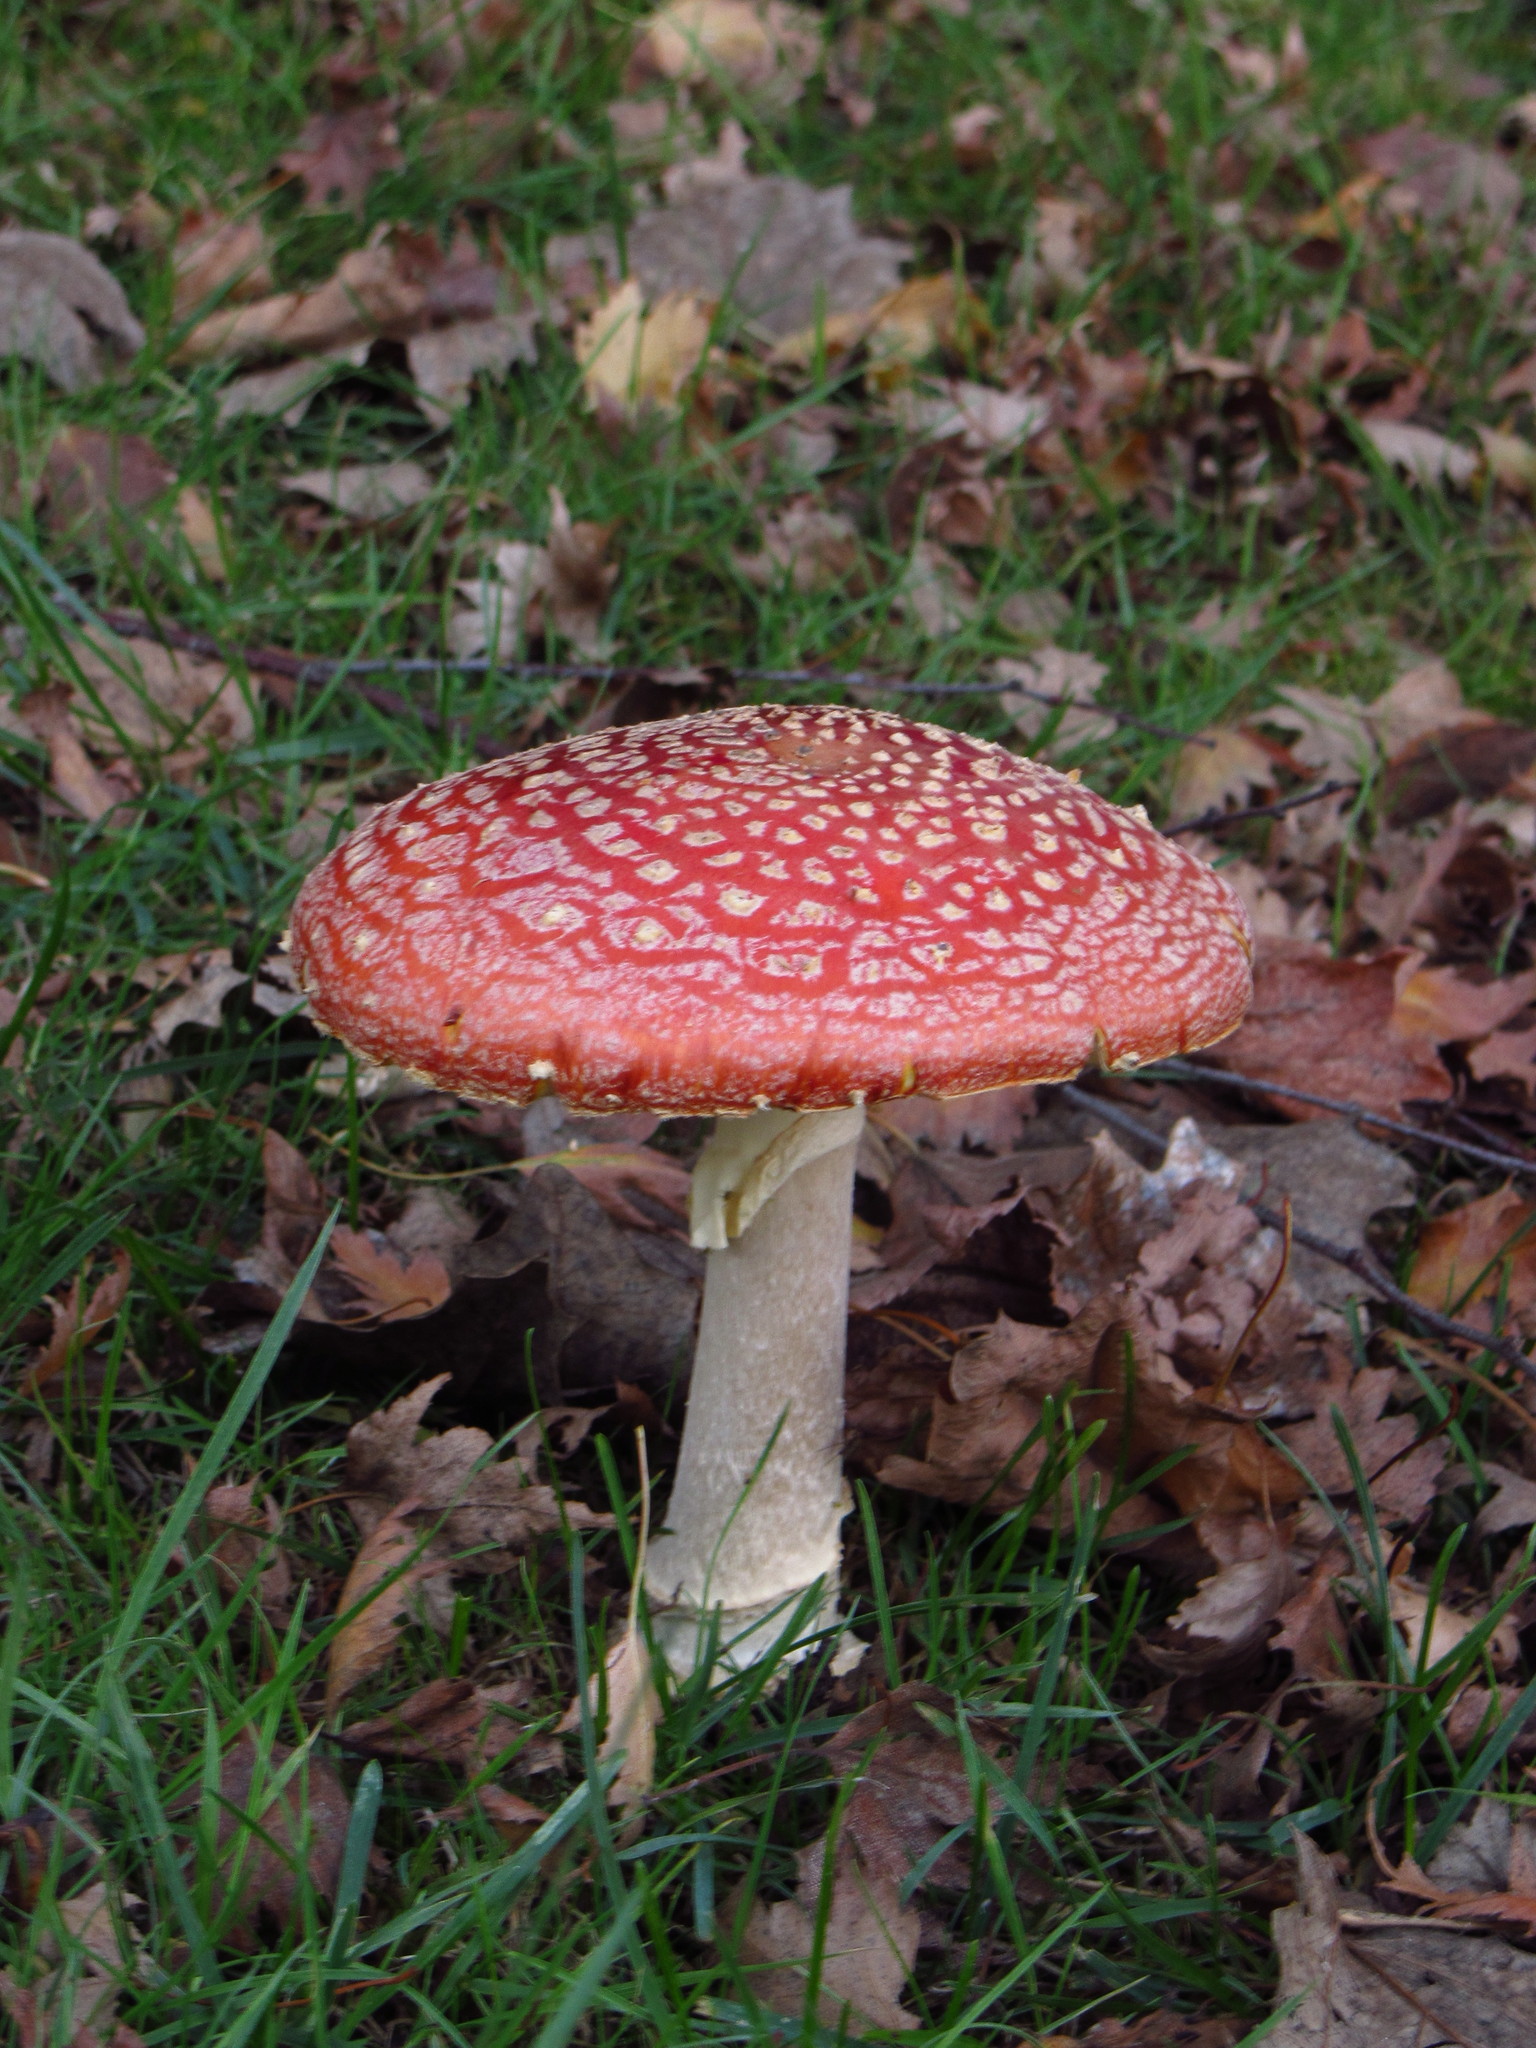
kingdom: Fungi
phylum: Basidiomycota
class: Agaricomycetes
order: Agaricales
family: Amanitaceae
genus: Amanita
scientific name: Amanita muscaria
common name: Fly agaric
